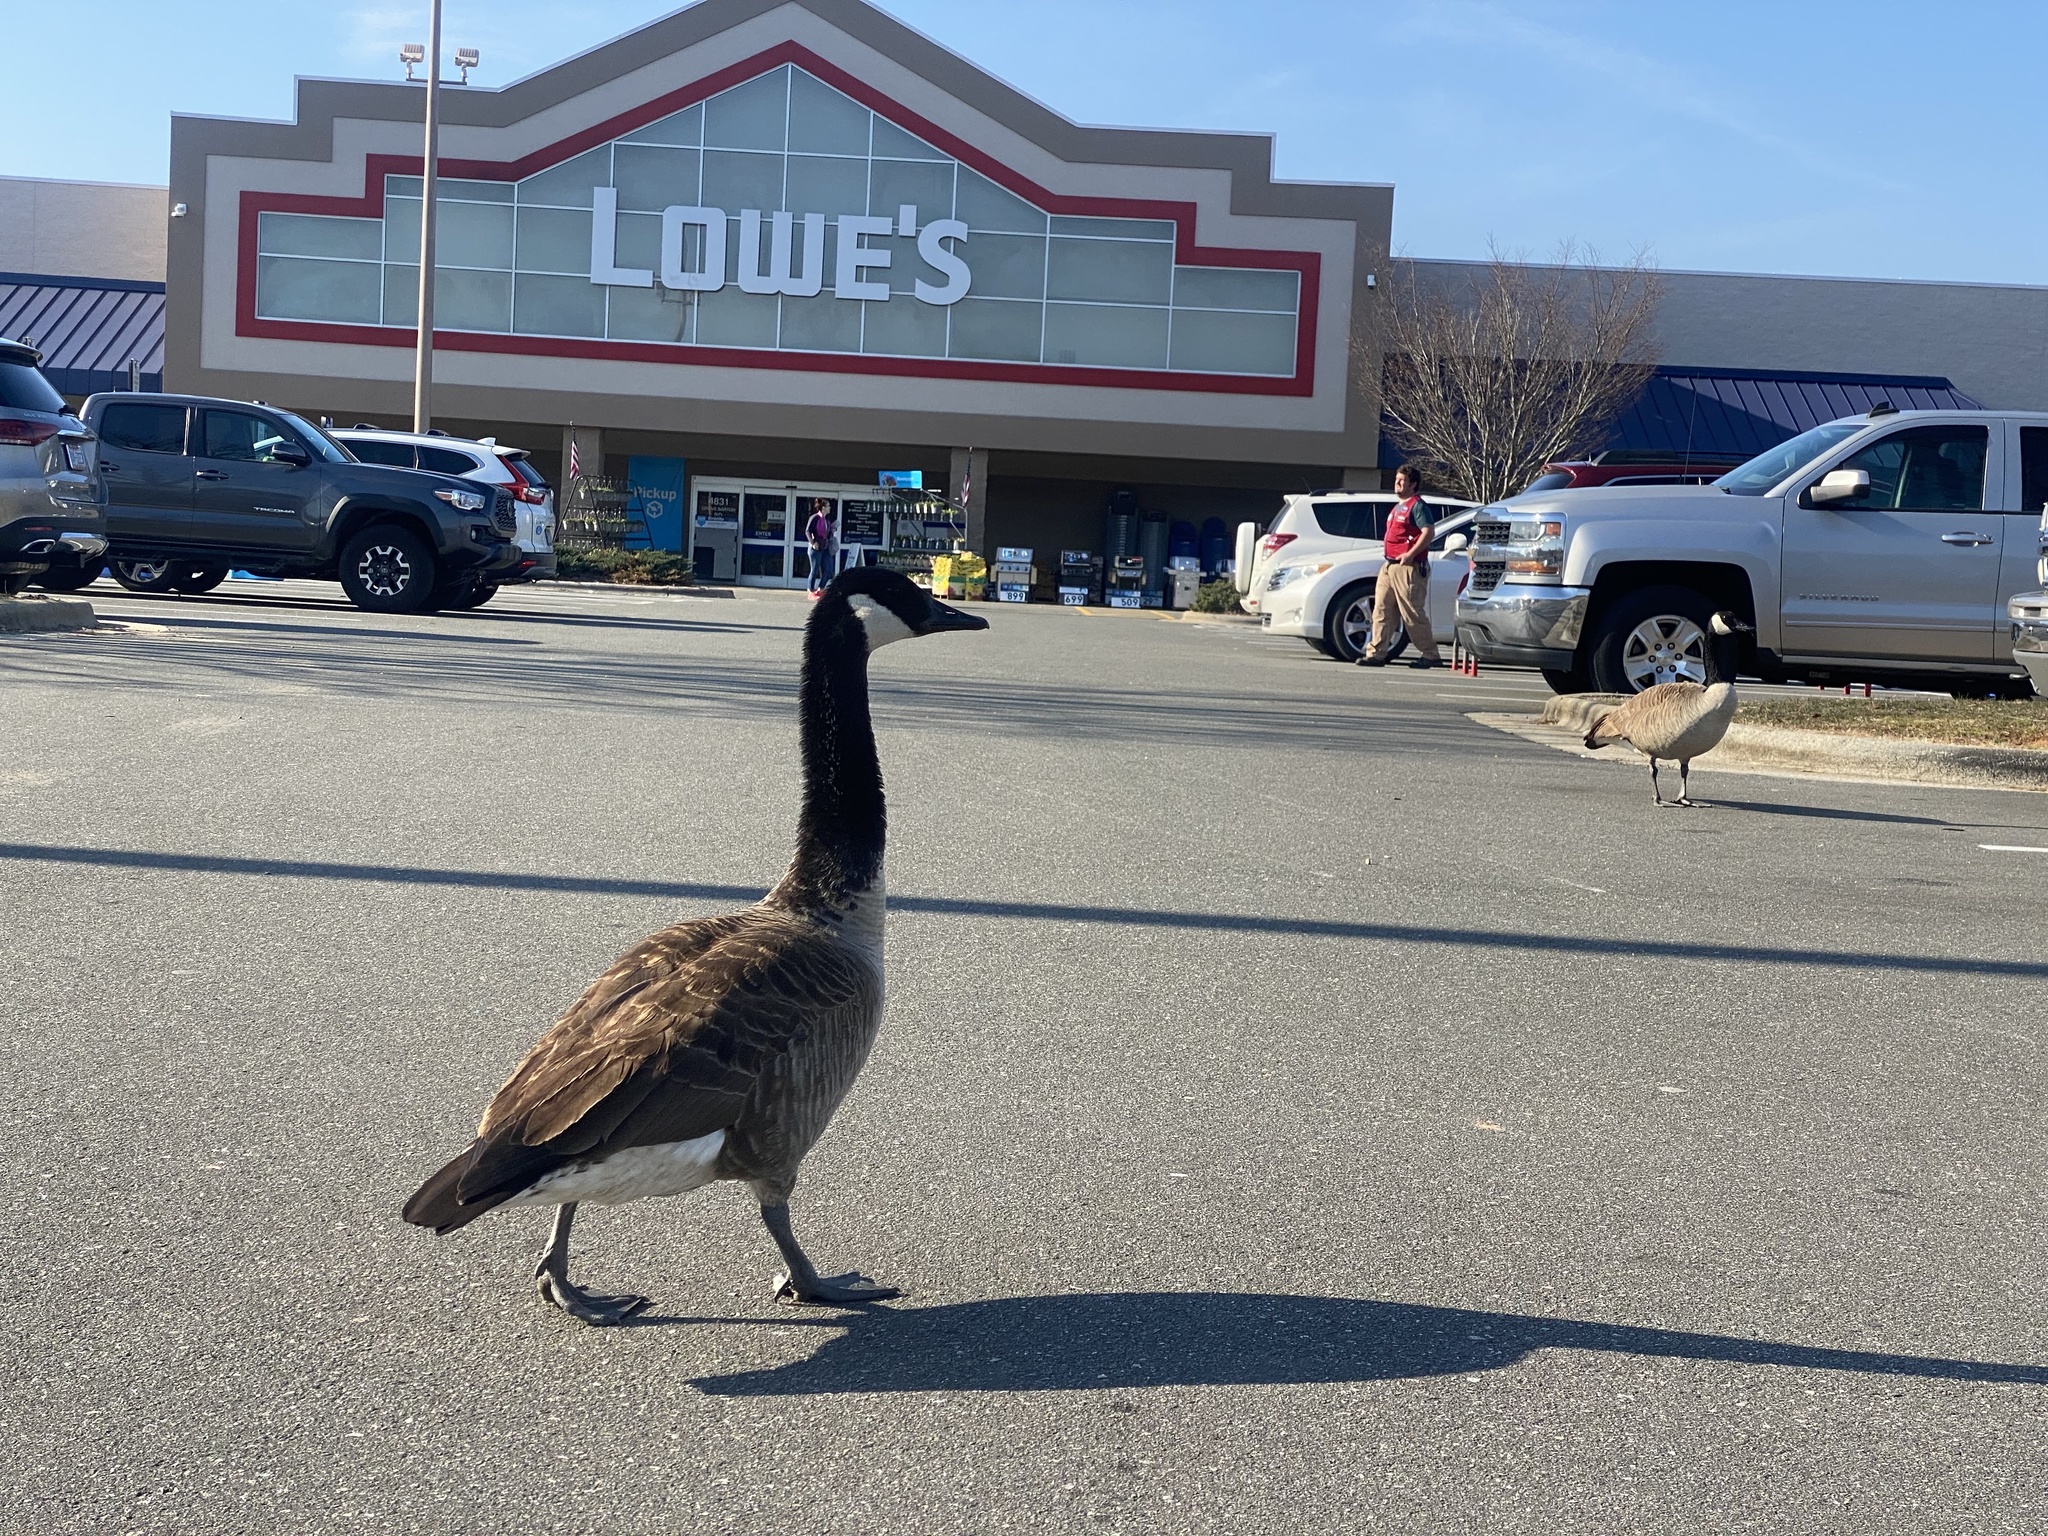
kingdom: Animalia
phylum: Chordata
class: Aves
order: Anseriformes
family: Anatidae
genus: Branta
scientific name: Branta canadensis
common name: Canada goose
